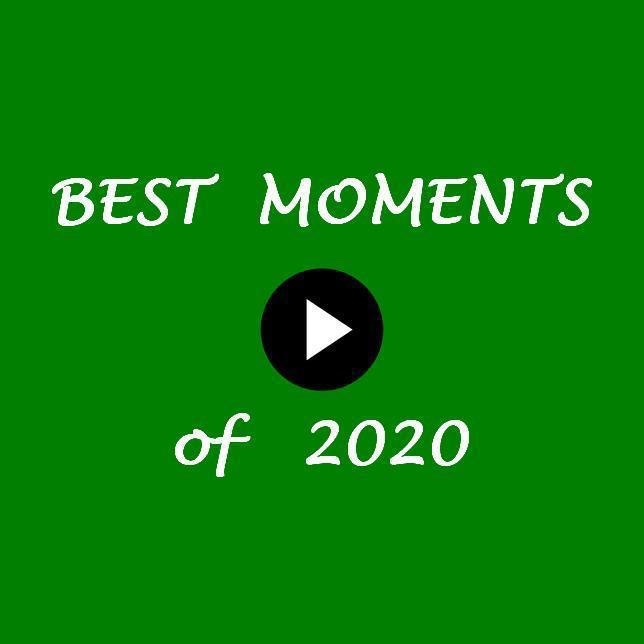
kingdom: Animalia
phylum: Chordata
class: Squamata
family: Lacertidae
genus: Zootoca
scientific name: Zootoca vivipara
